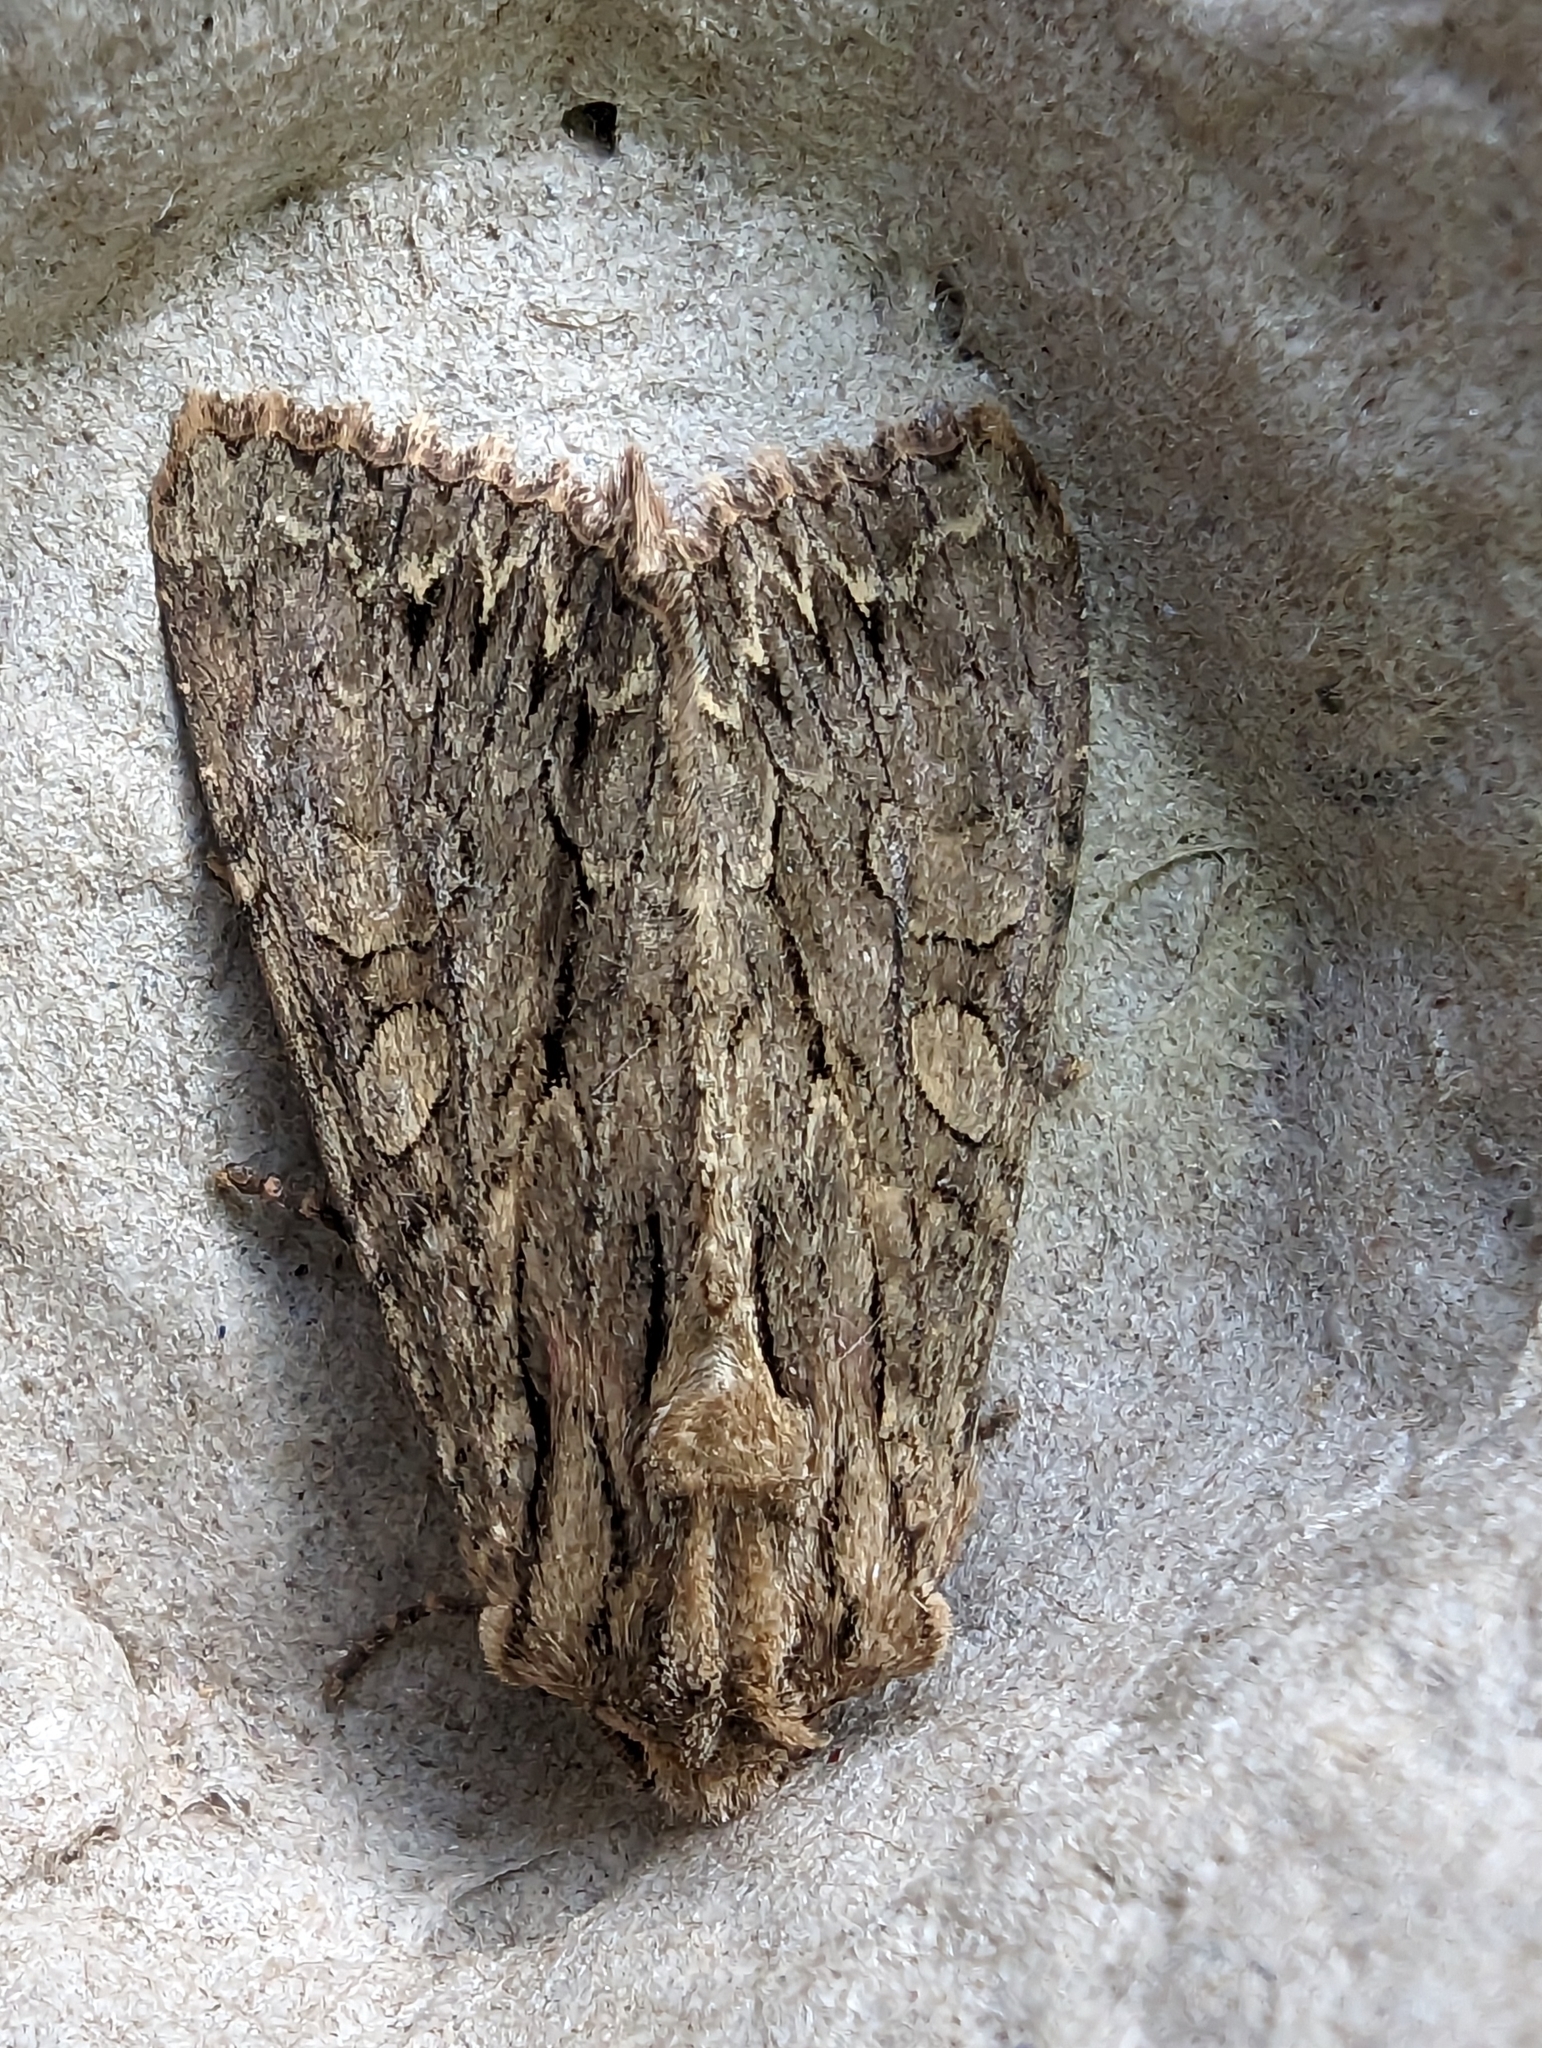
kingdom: Animalia
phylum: Arthropoda
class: Insecta
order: Lepidoptera
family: Noctuidae
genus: Apamea
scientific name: Apamea monoglypha
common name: Dark arches
